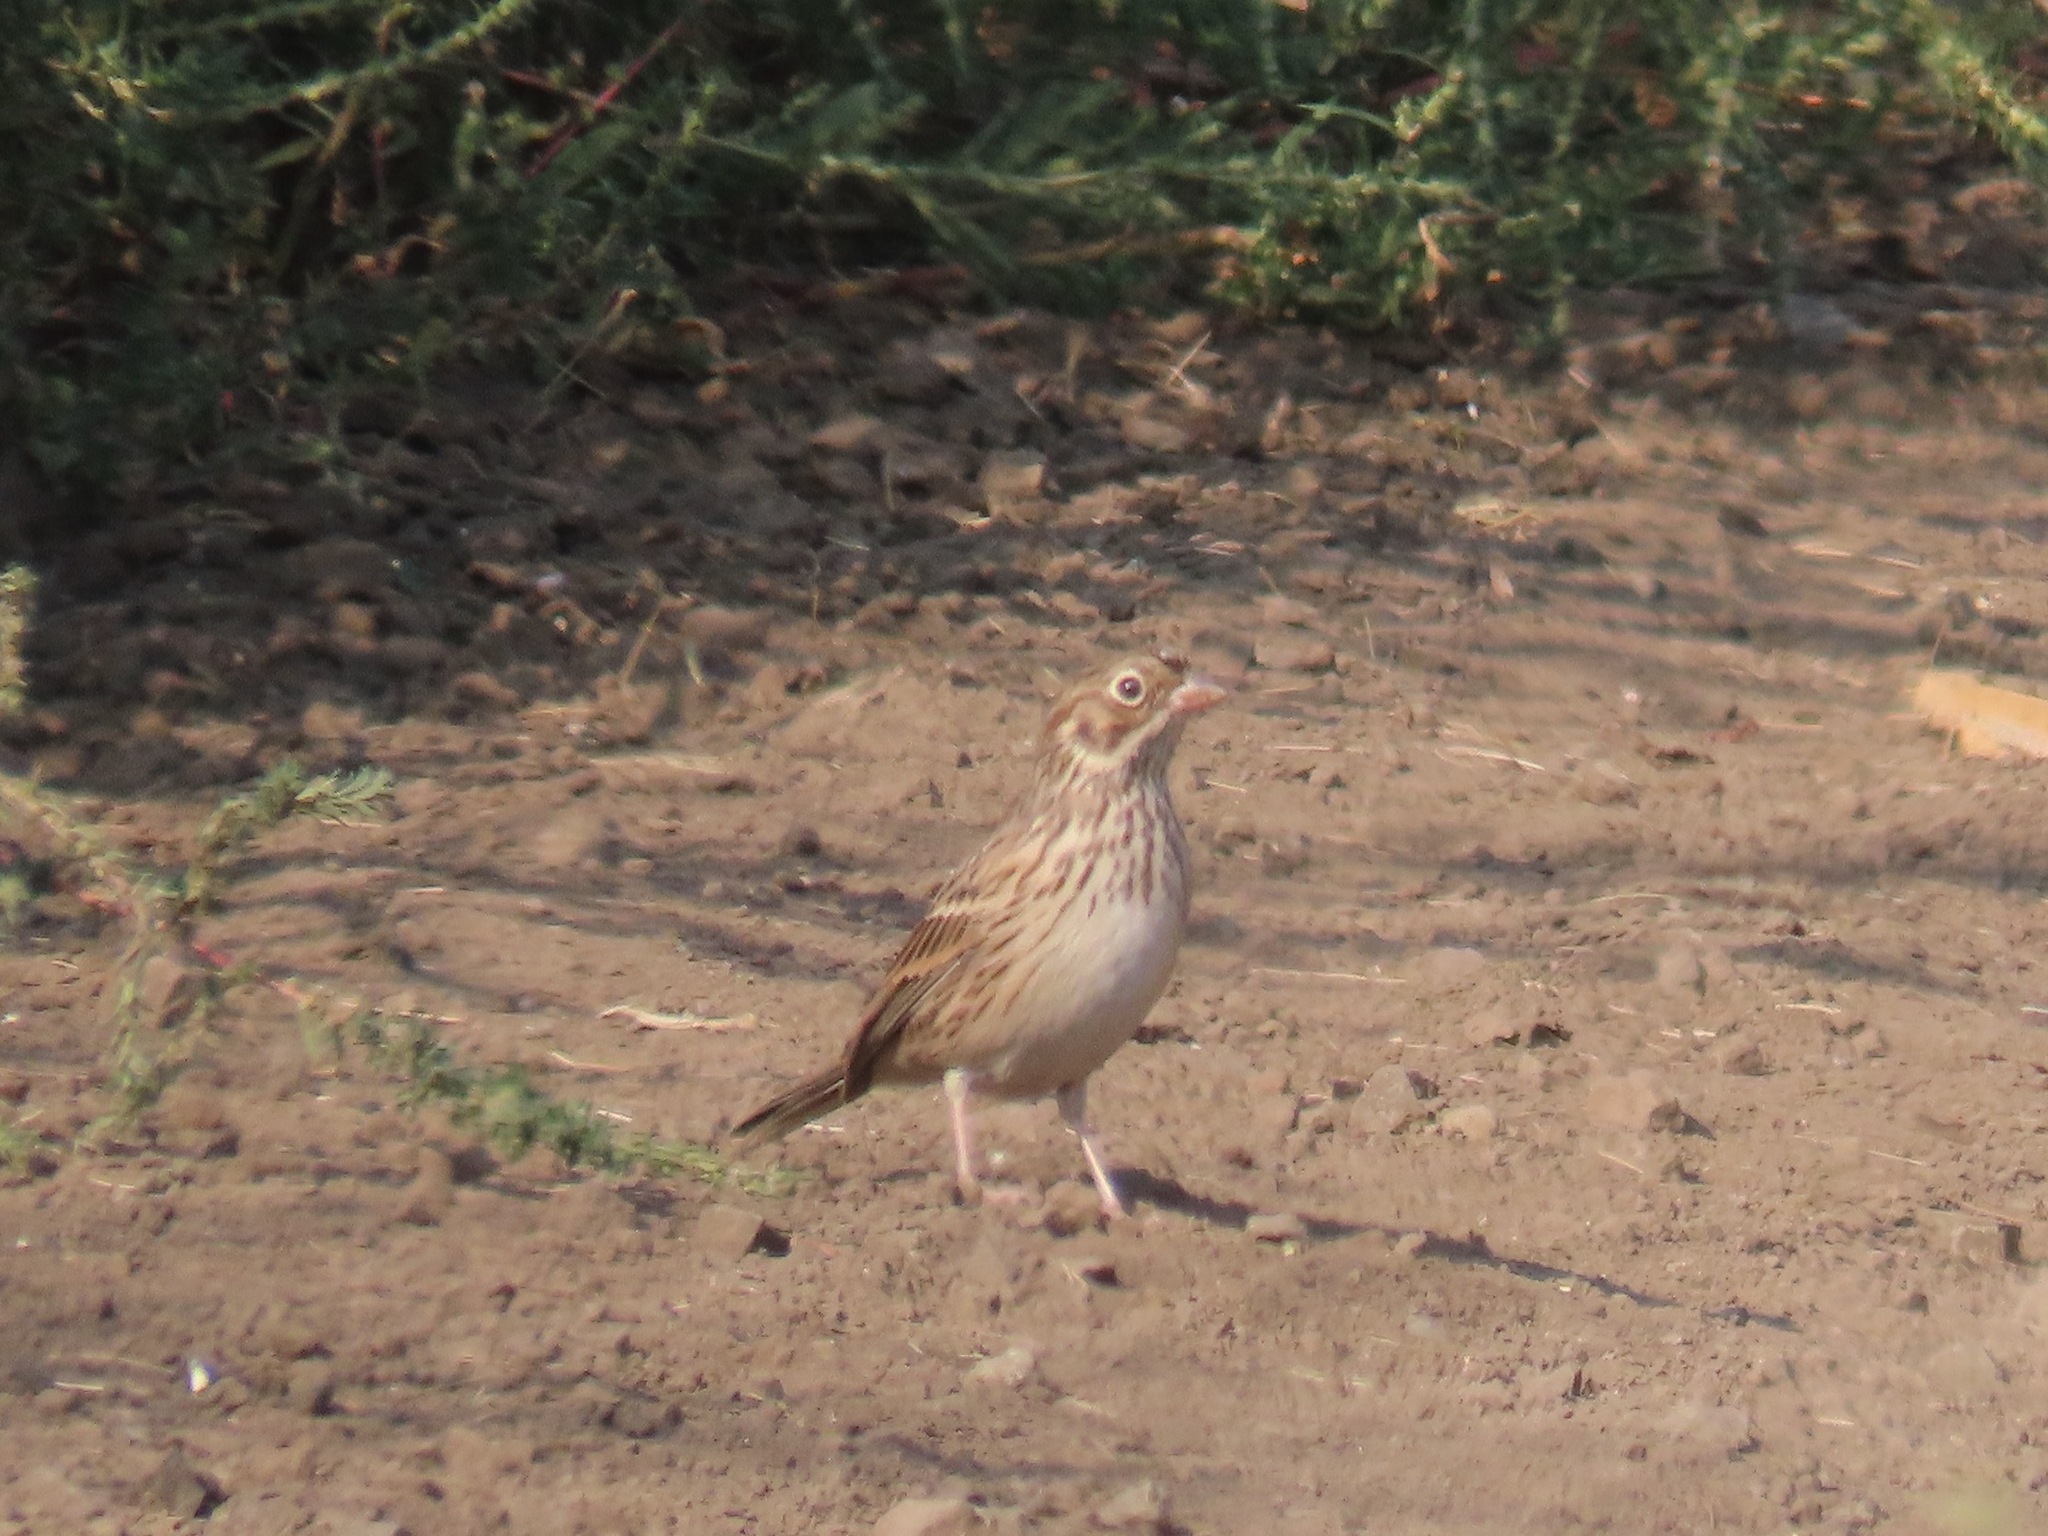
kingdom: Animalia
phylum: Chordata
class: Aves
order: Passeriformes
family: Passerellidae
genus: Pooecetes
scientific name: Pooecetes gramineus
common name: Vesper sparrow
